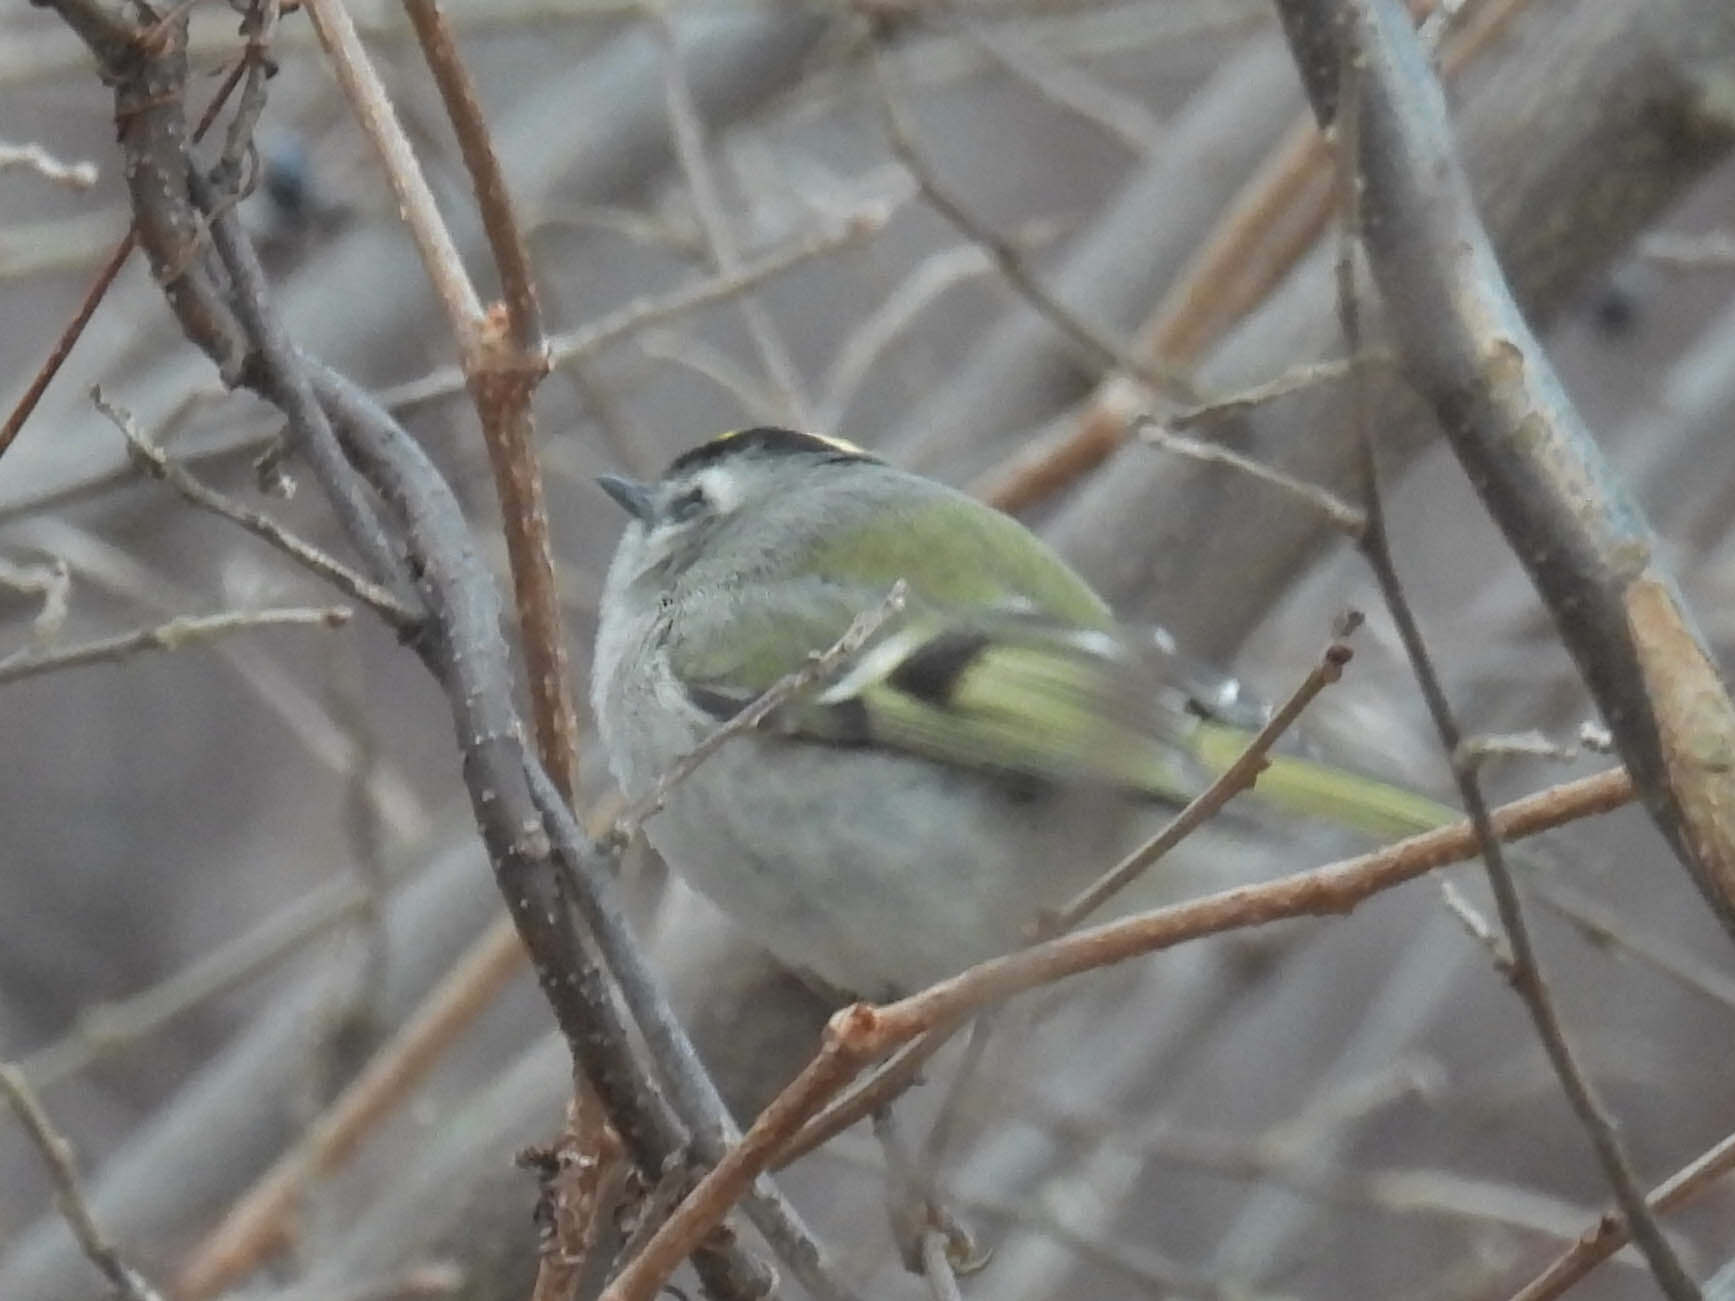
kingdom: Animalia
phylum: Chordata
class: Aves
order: Passeriformes
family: Regulidae
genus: Regulus
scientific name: Regulus satrapa
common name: Golden-crowned kinglet
